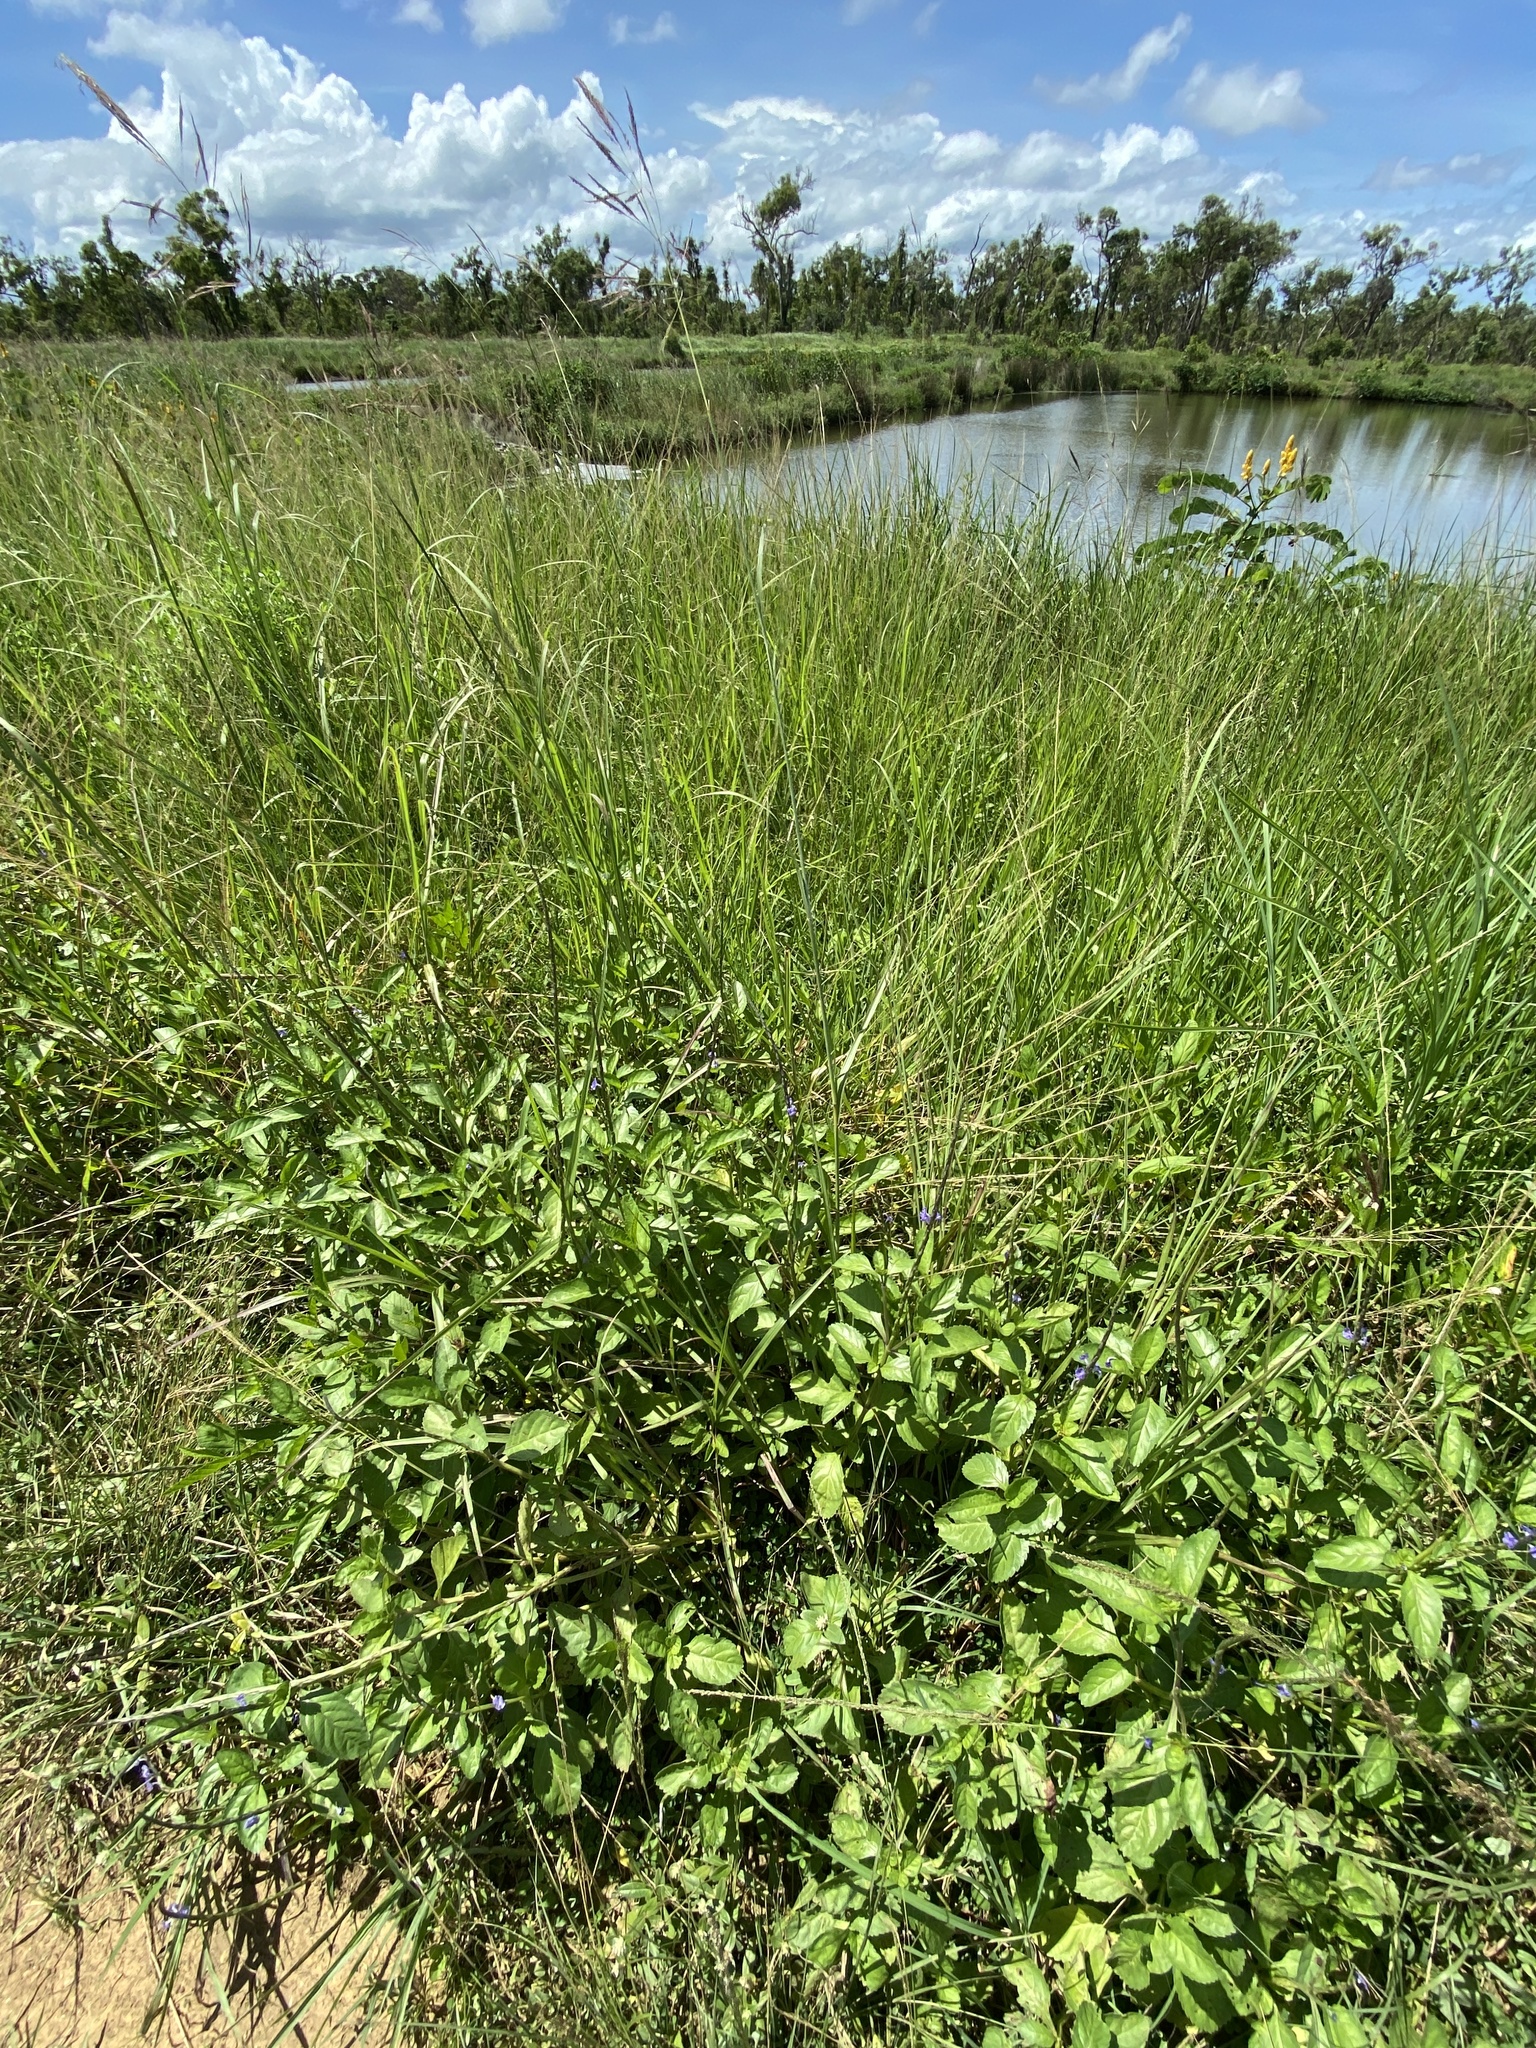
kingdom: Plantae
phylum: Tracheophyta
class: Magnoliopsida
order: Lamiales
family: Verbenaceae
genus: Stachytarpheta
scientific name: Stachytarpheta jamaicensis
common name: Light-blue snakeweed
